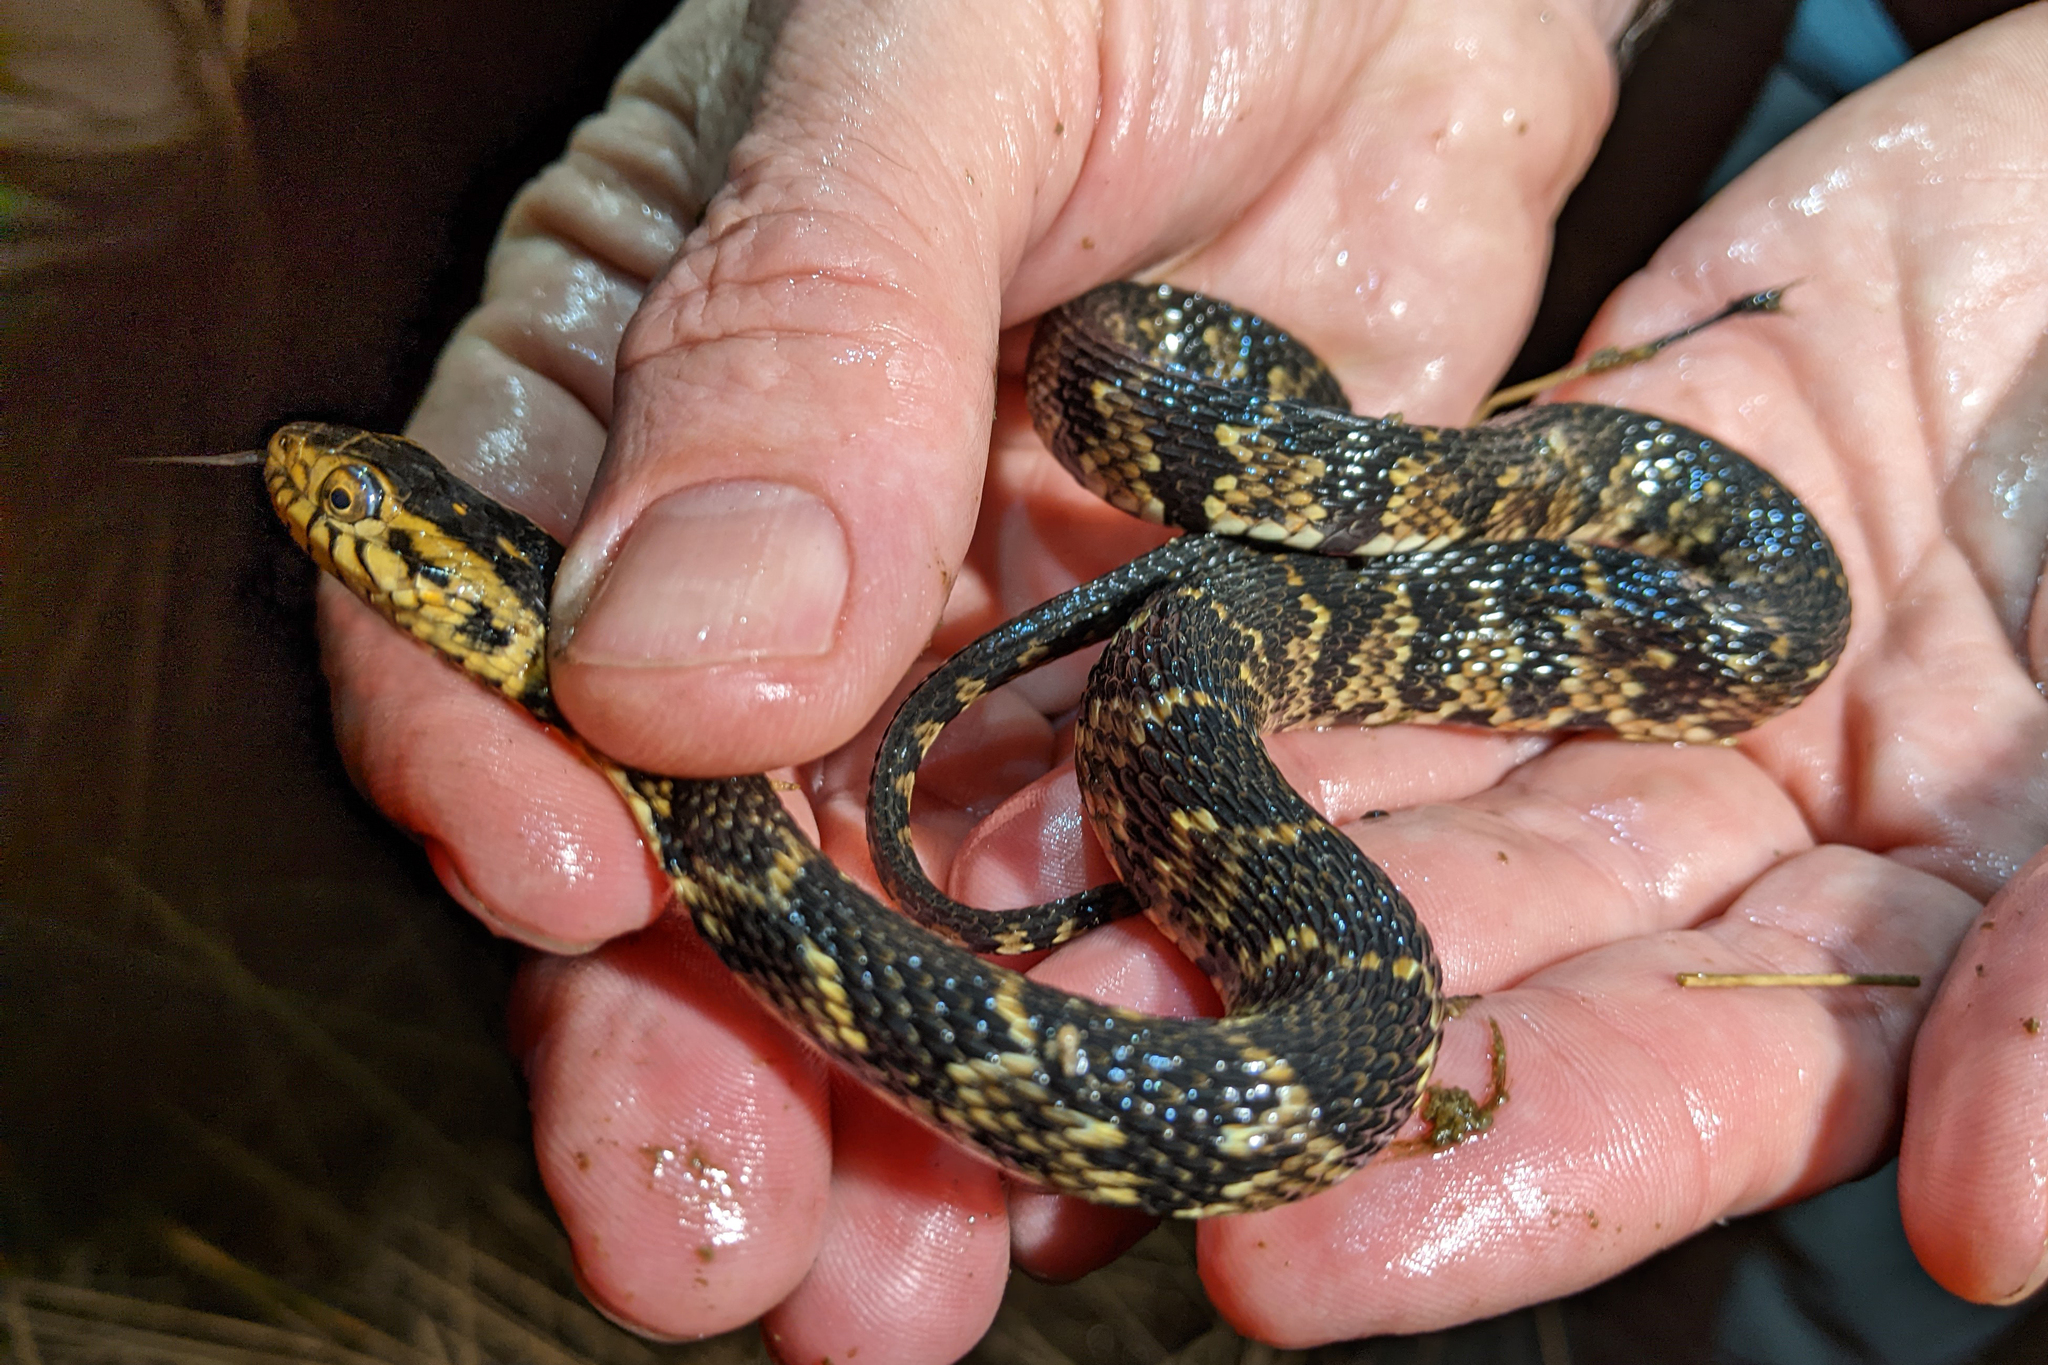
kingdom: Animalia
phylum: Chordata
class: Squamata
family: Colubridae
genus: Nerodia
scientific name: Nerodia fasciata
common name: Southern water snake
